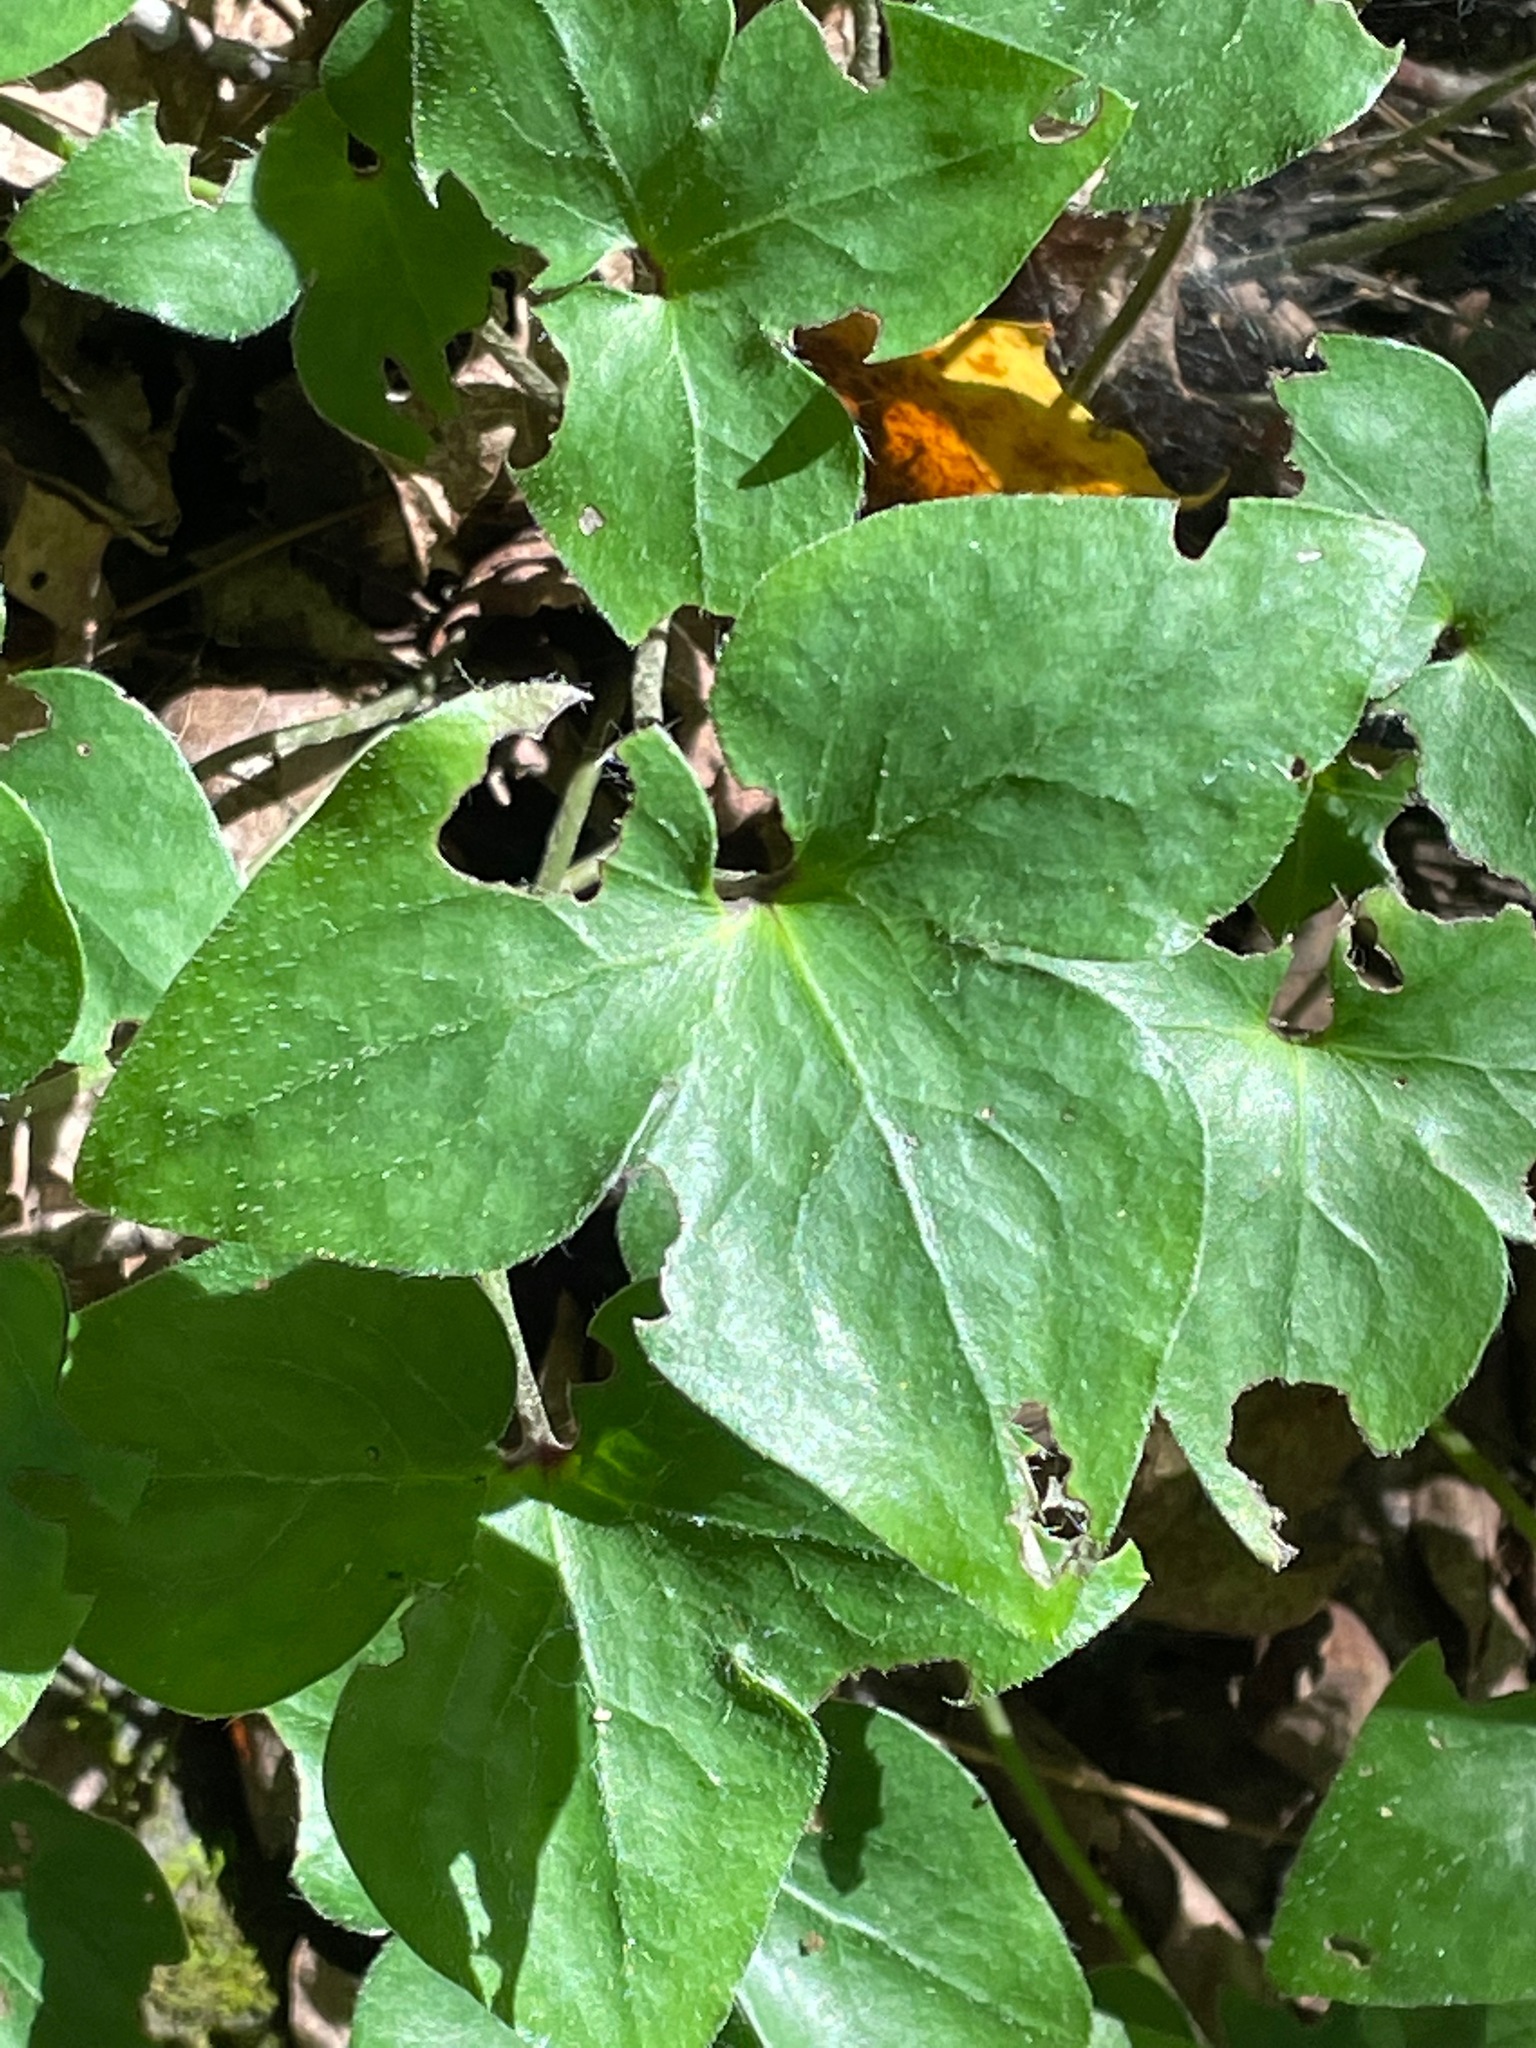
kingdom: Plantae
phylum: Tracheophyta
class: Magnoliopsida
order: Ranunculales
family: Ranunculaceae
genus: Hepatica
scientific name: Hepatica acutiloba
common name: Sharp-lobed hepatica
